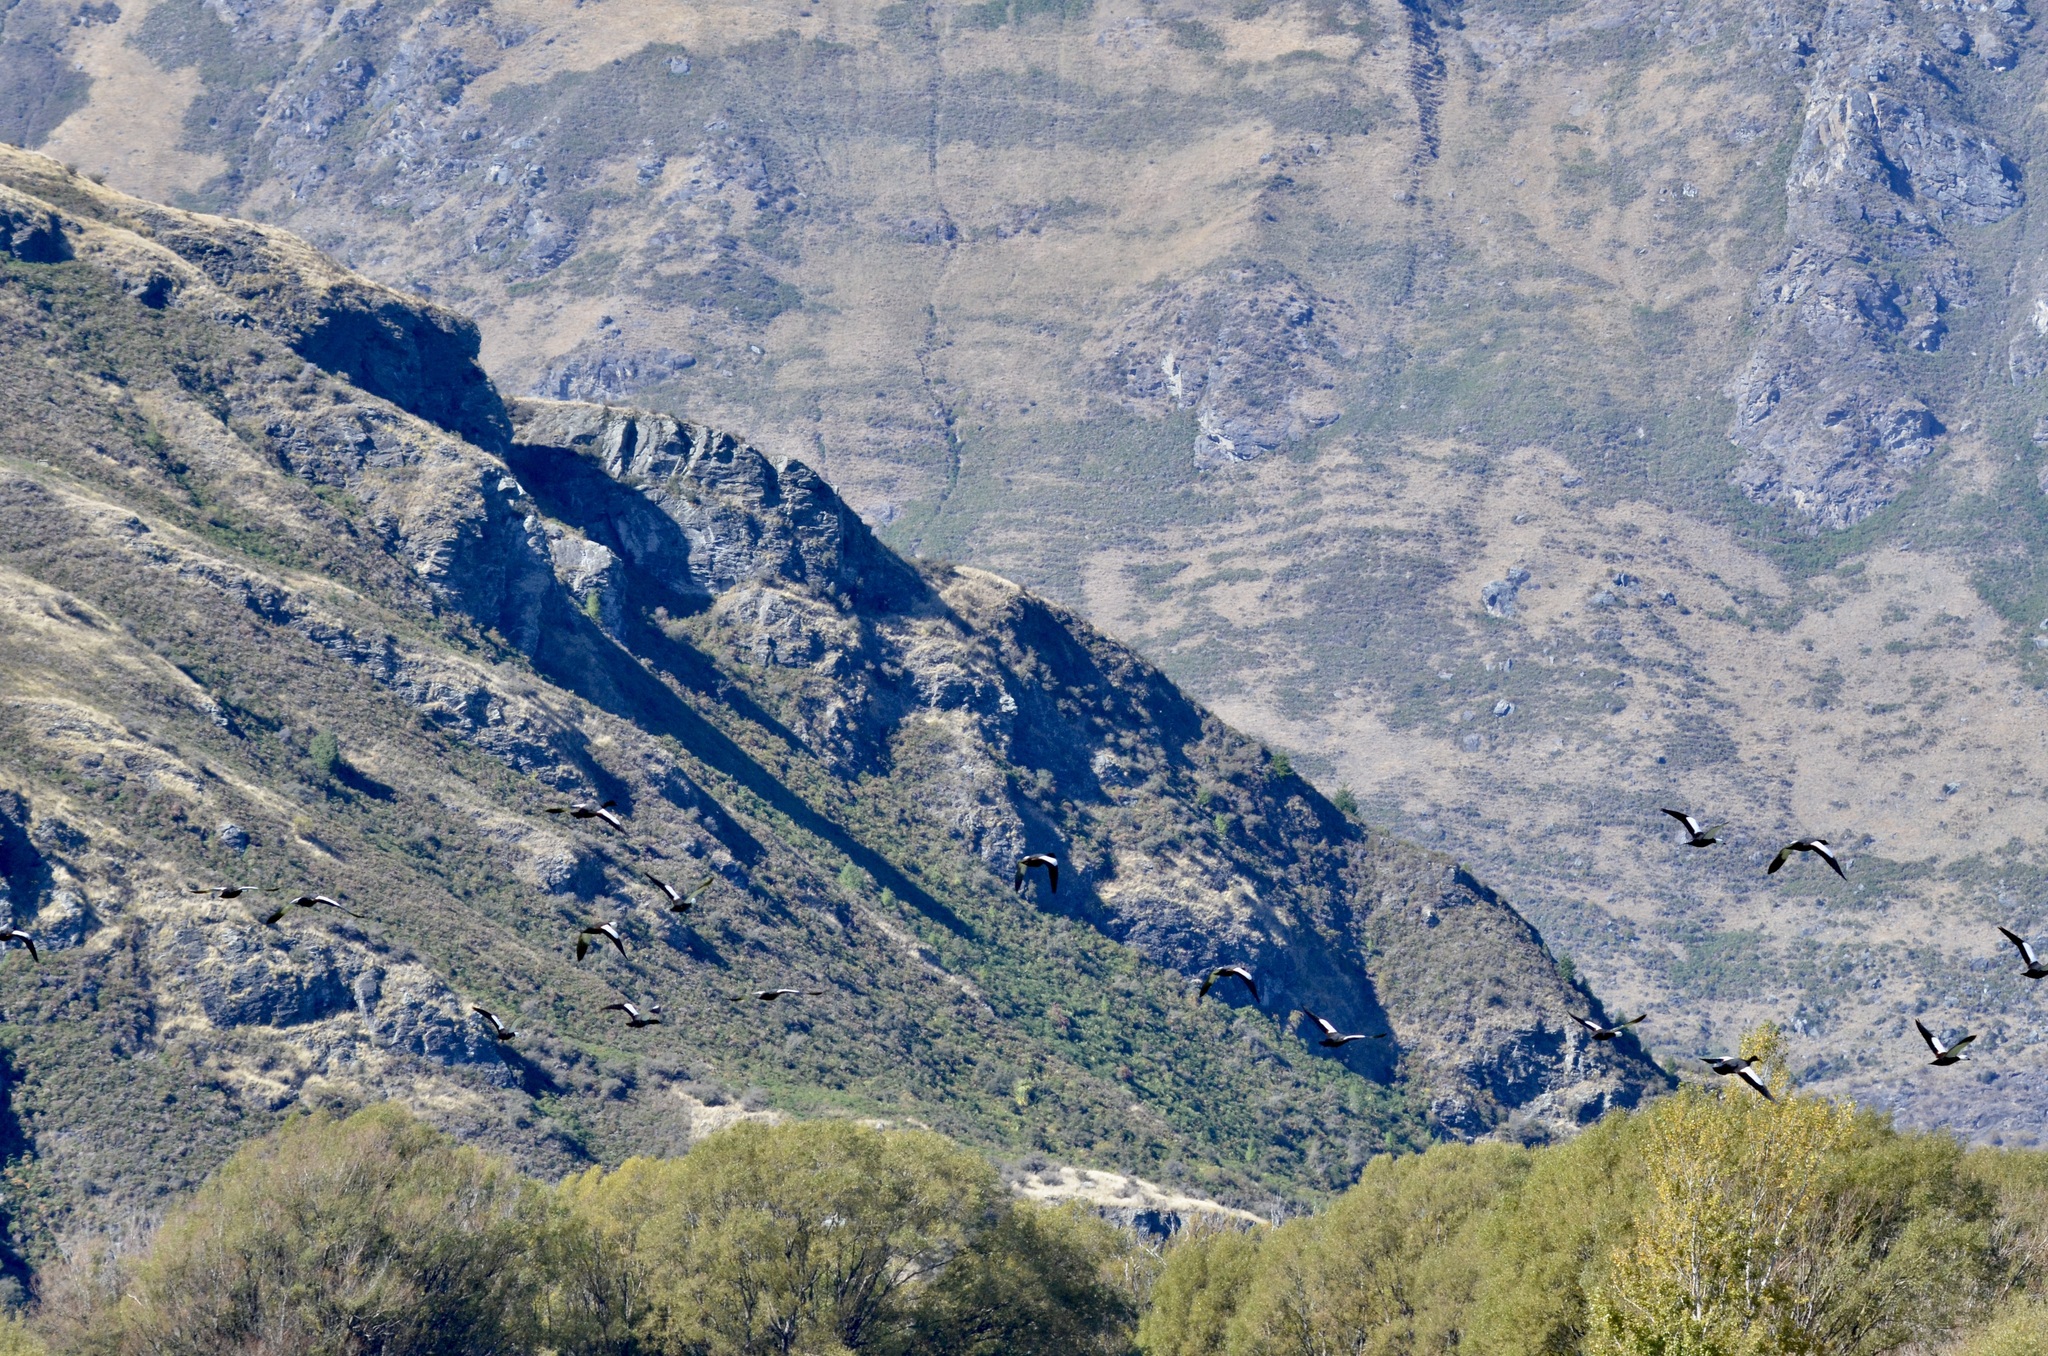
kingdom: Animalia
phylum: Chordata
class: Aves
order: Anseriformes
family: Anatidae
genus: Tadorna
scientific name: Tadorna variegata
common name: Paradise shelduck
